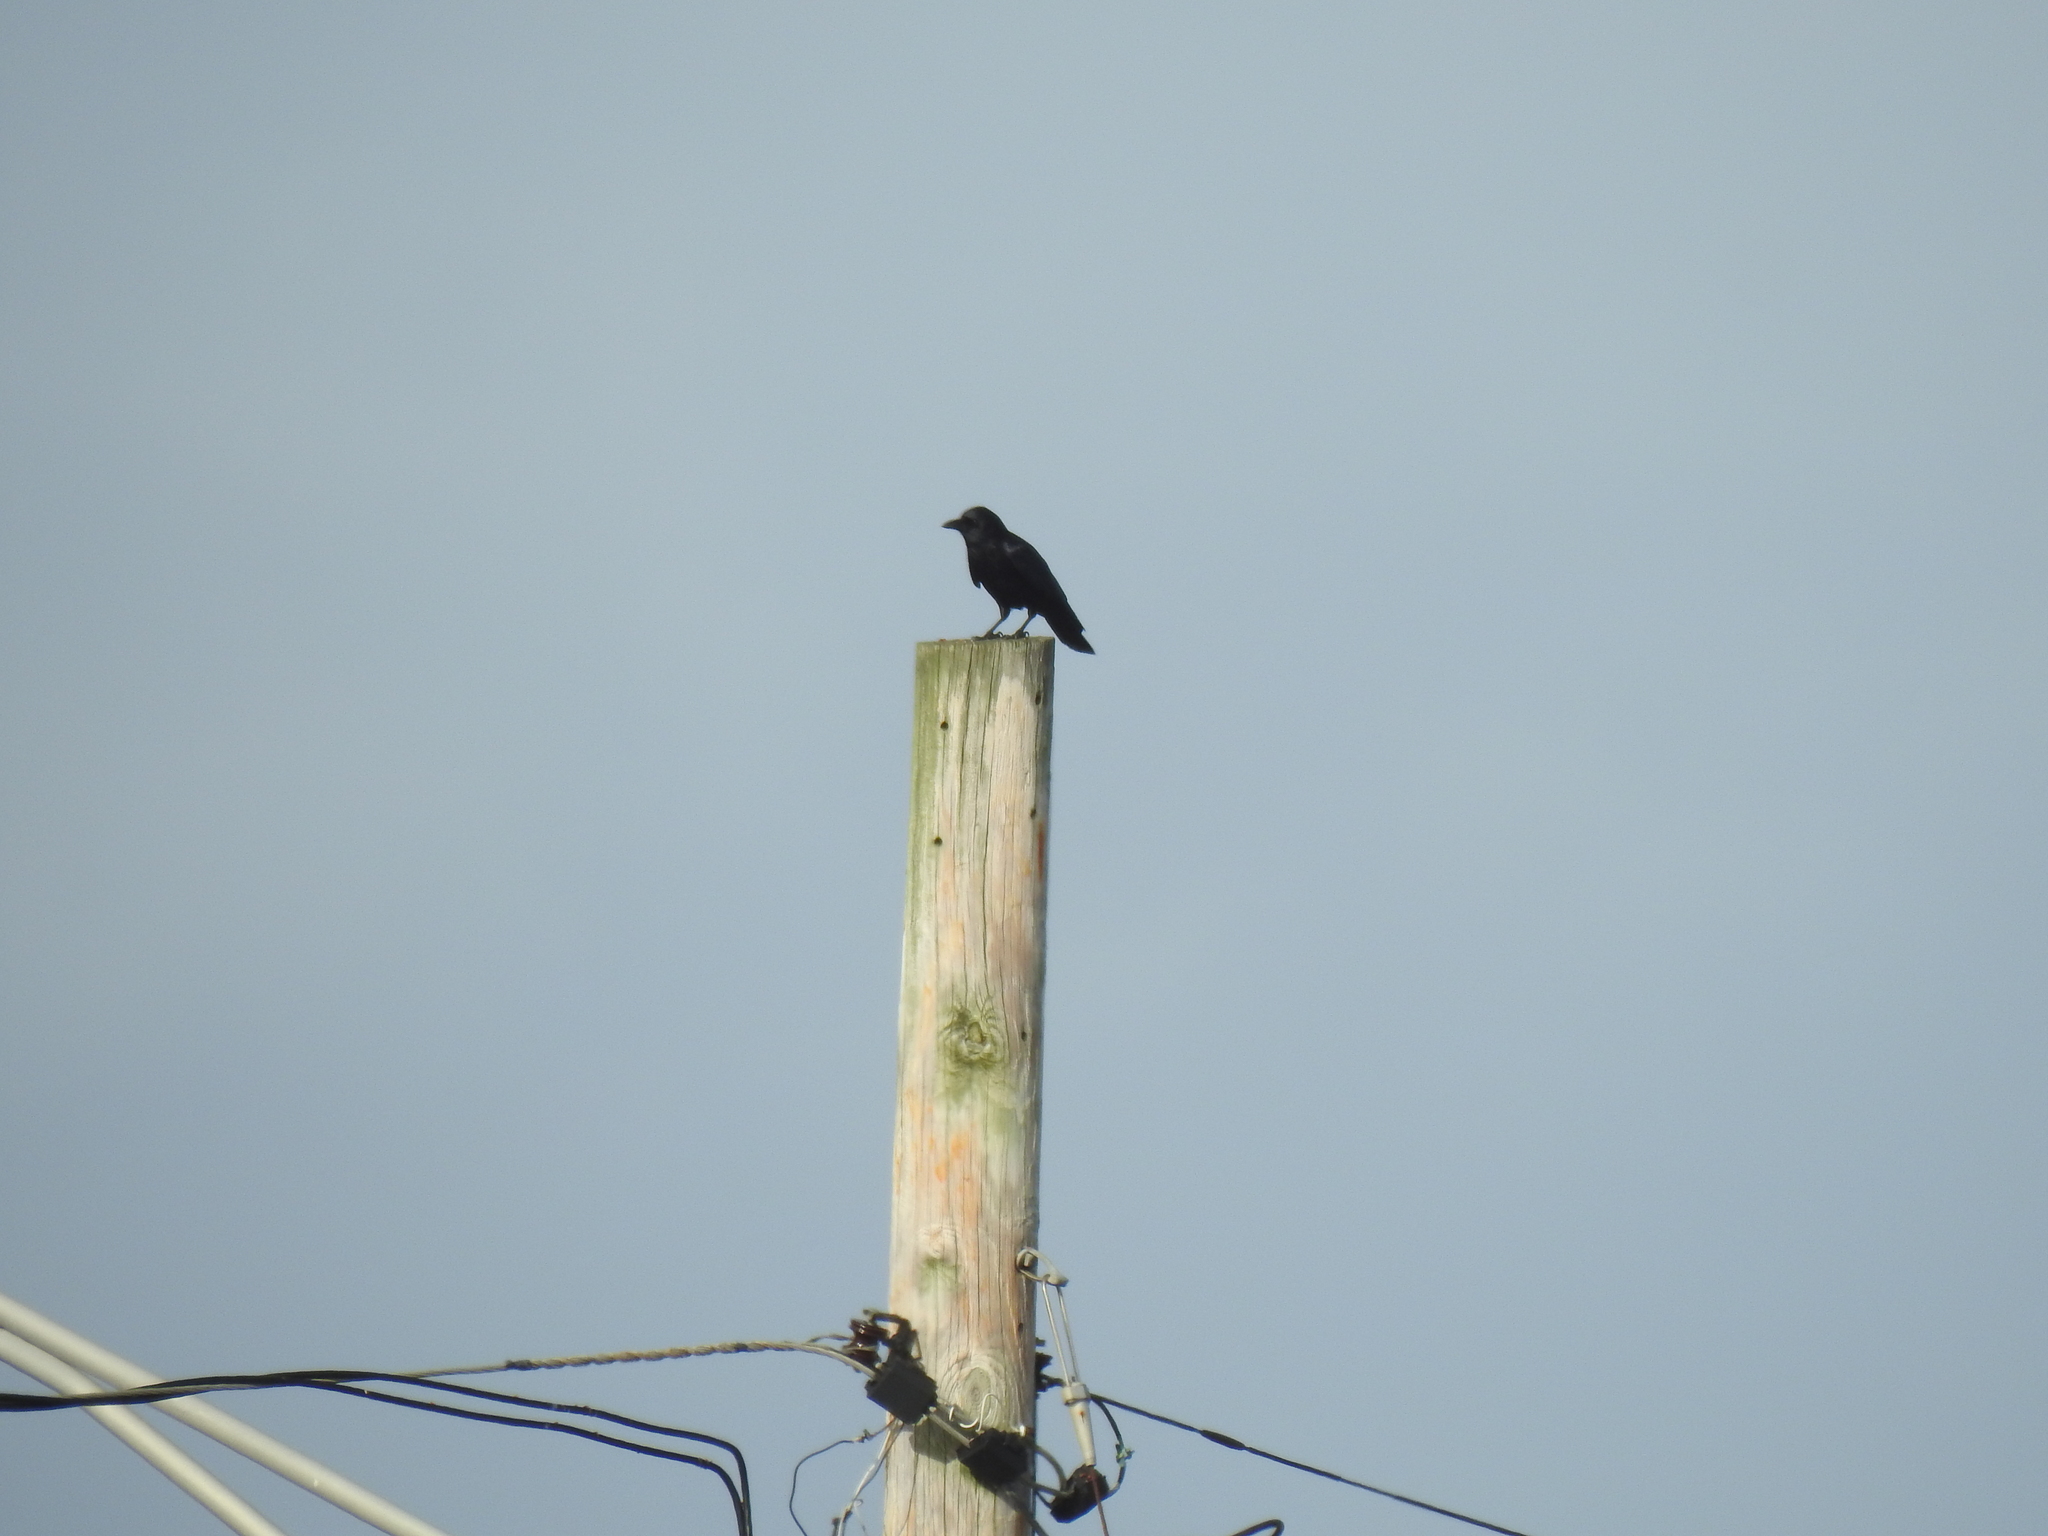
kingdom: Animalia
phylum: Chordata
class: Aves
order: Passeriformes
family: Corvidae
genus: Corvus
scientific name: Corvus brachyrhynchos
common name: American crow
